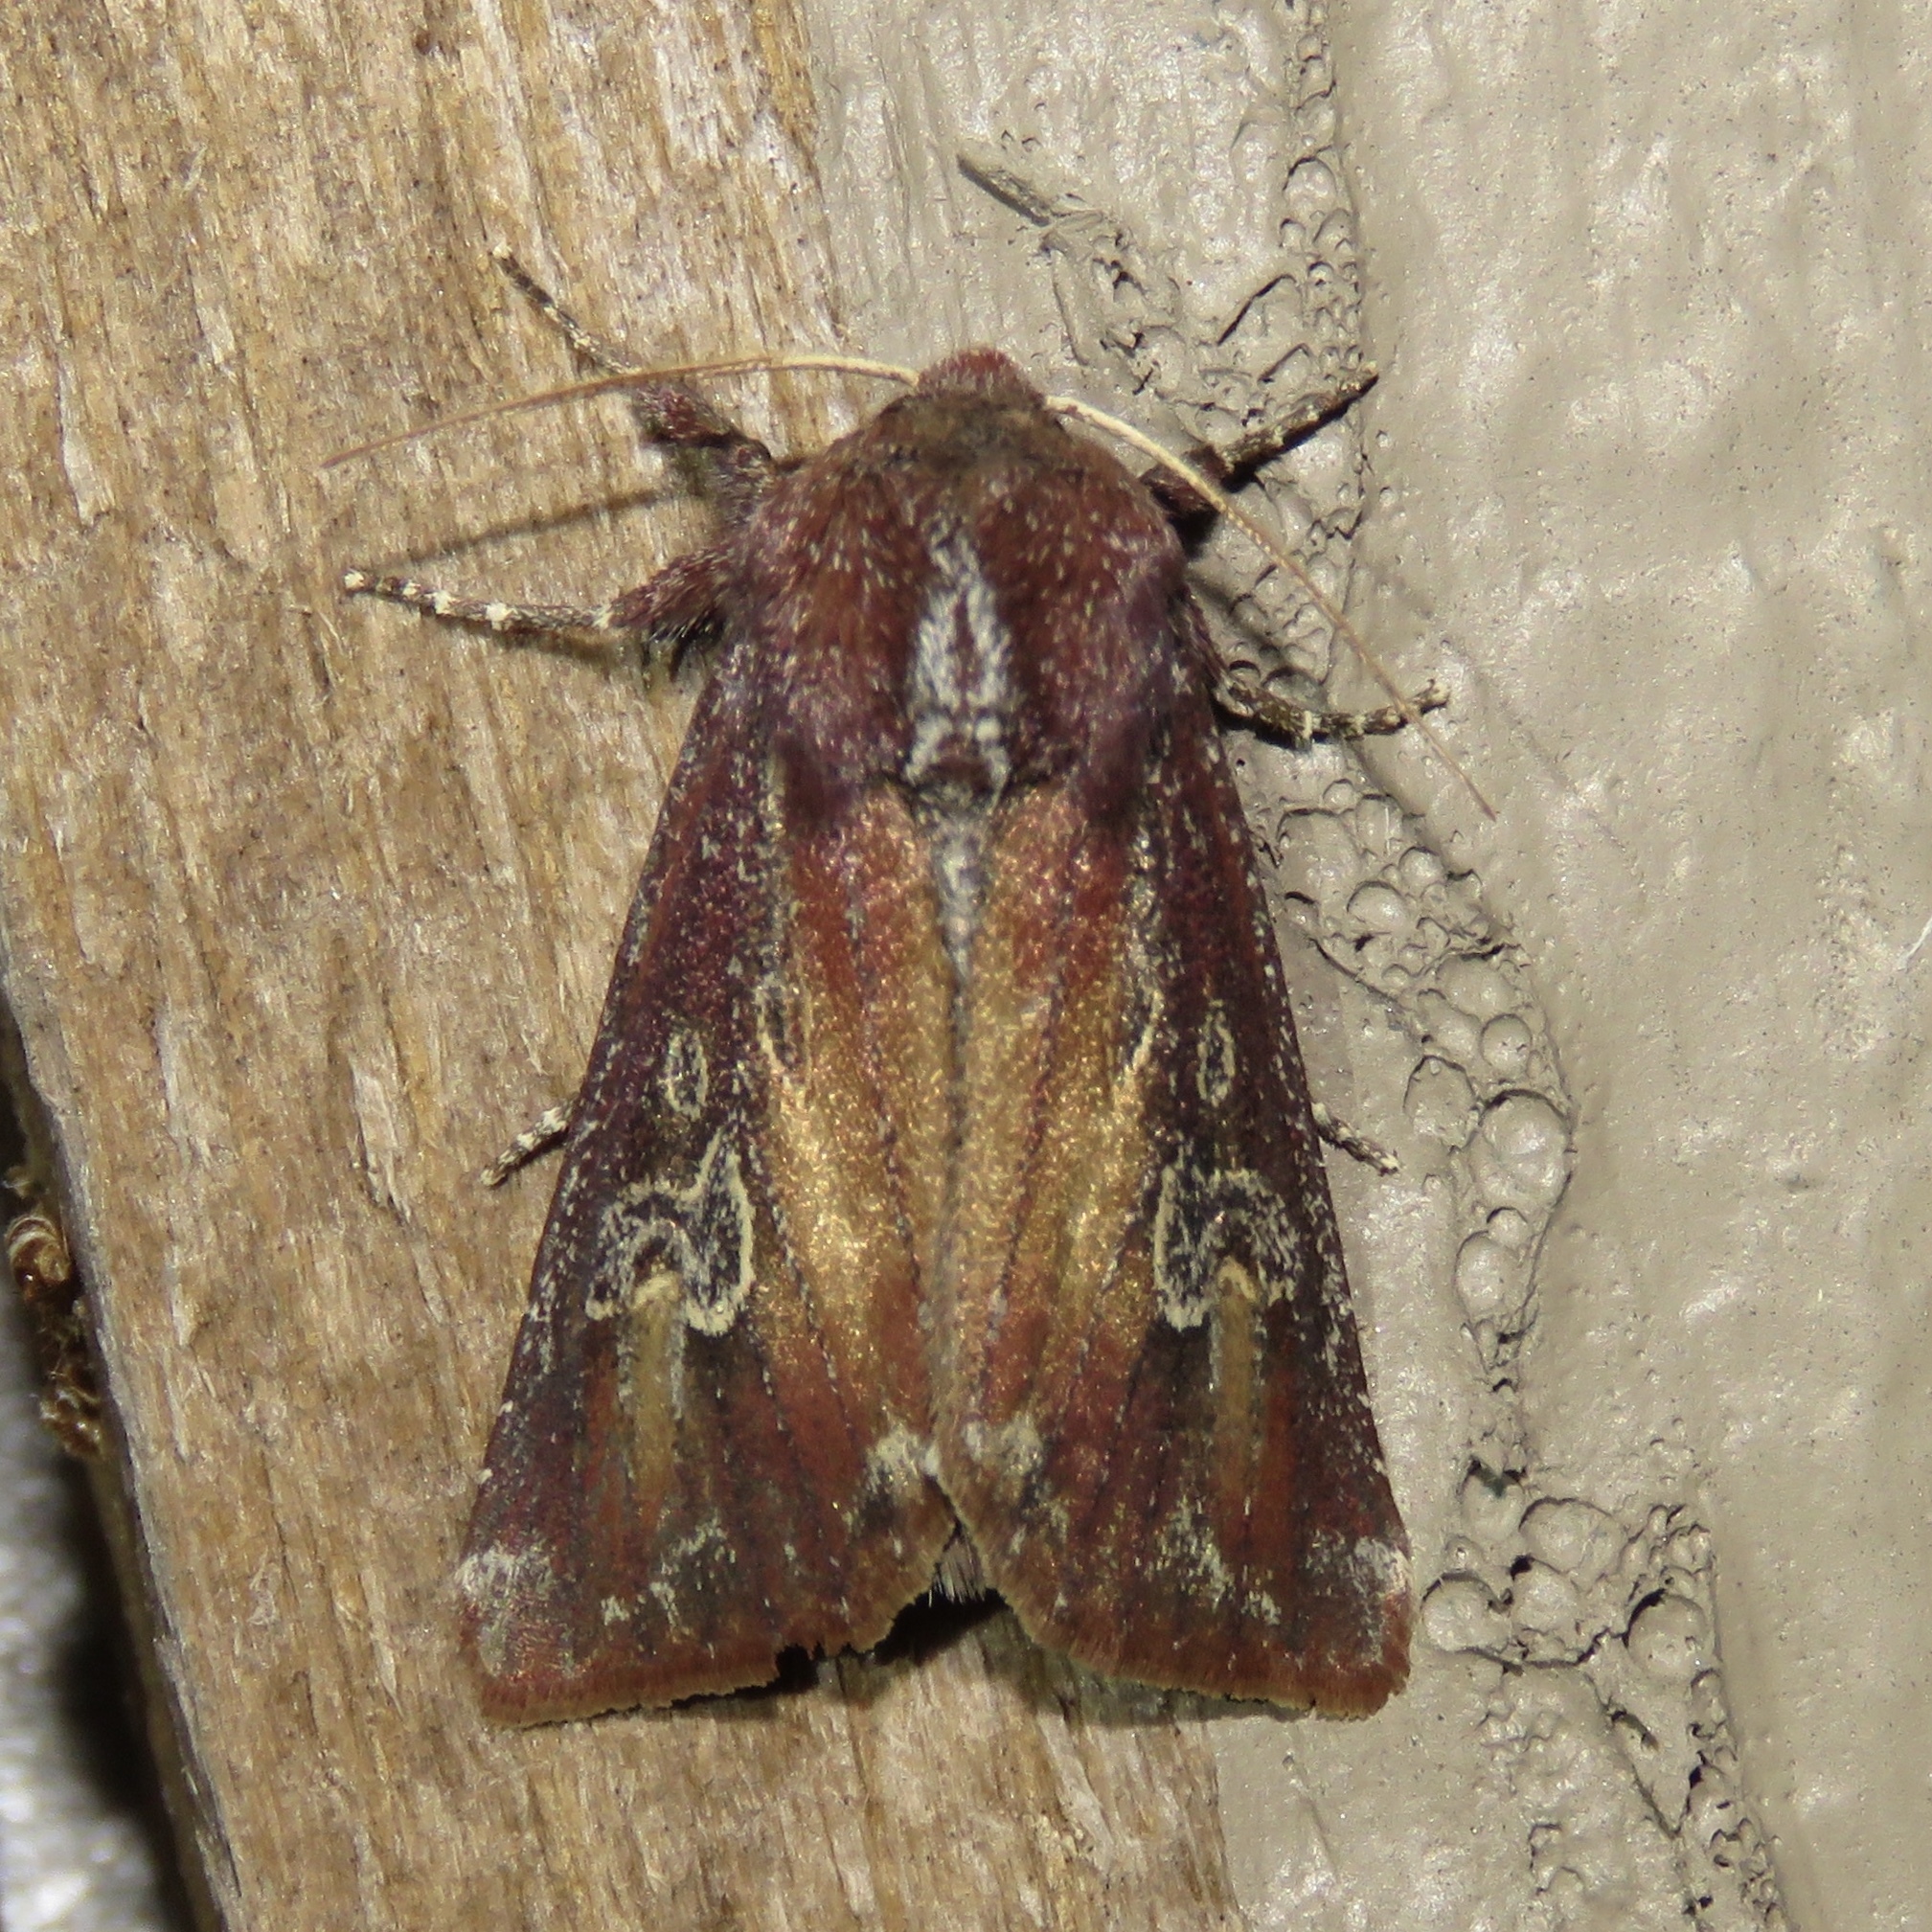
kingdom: Animalia
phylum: Arthropoda
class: Insecta
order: Lepidoptera
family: Noctuidae
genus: Melanchra
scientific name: Melanchra picta
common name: Zebra caterpillar
